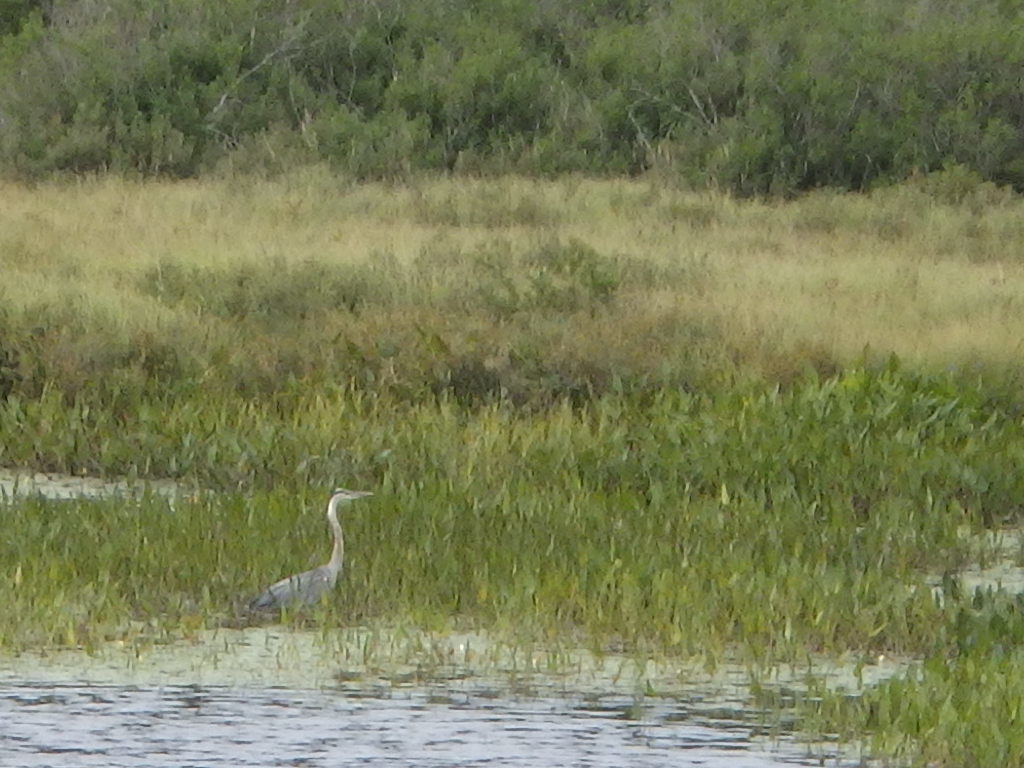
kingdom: Animalia
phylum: Chordata
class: Aves
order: Pelecaniformes
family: Ardeidae
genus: Ardea
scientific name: Ardea herodias
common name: Great blue heron
